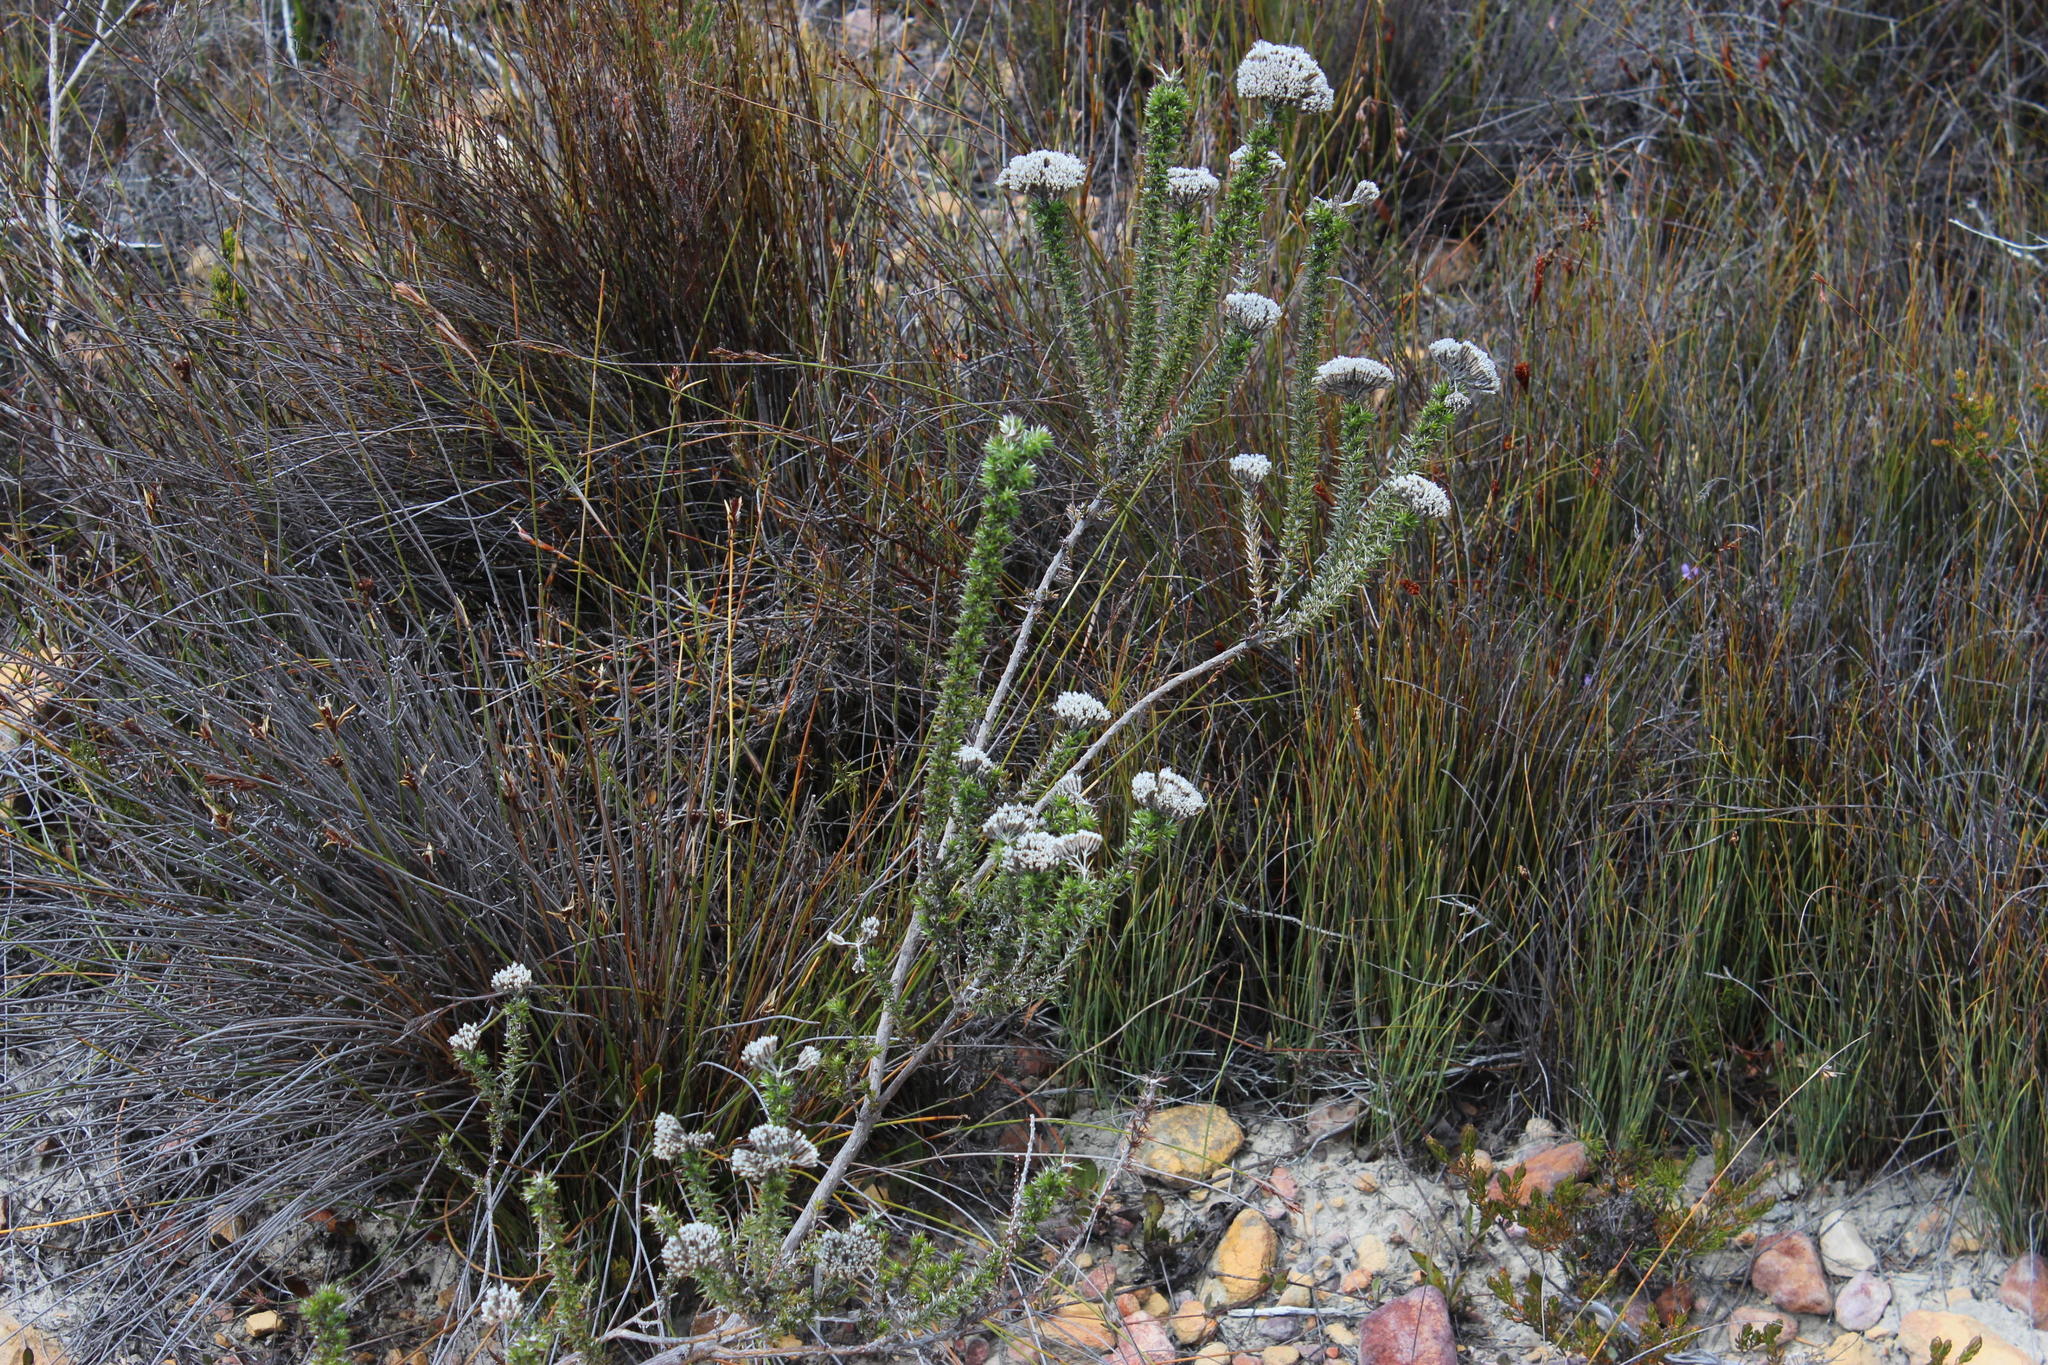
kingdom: Plantae
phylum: Tracheophyta
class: Magnoliopsida
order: Asterales
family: Asteraceae
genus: Metalasia
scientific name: Metalasia densa
